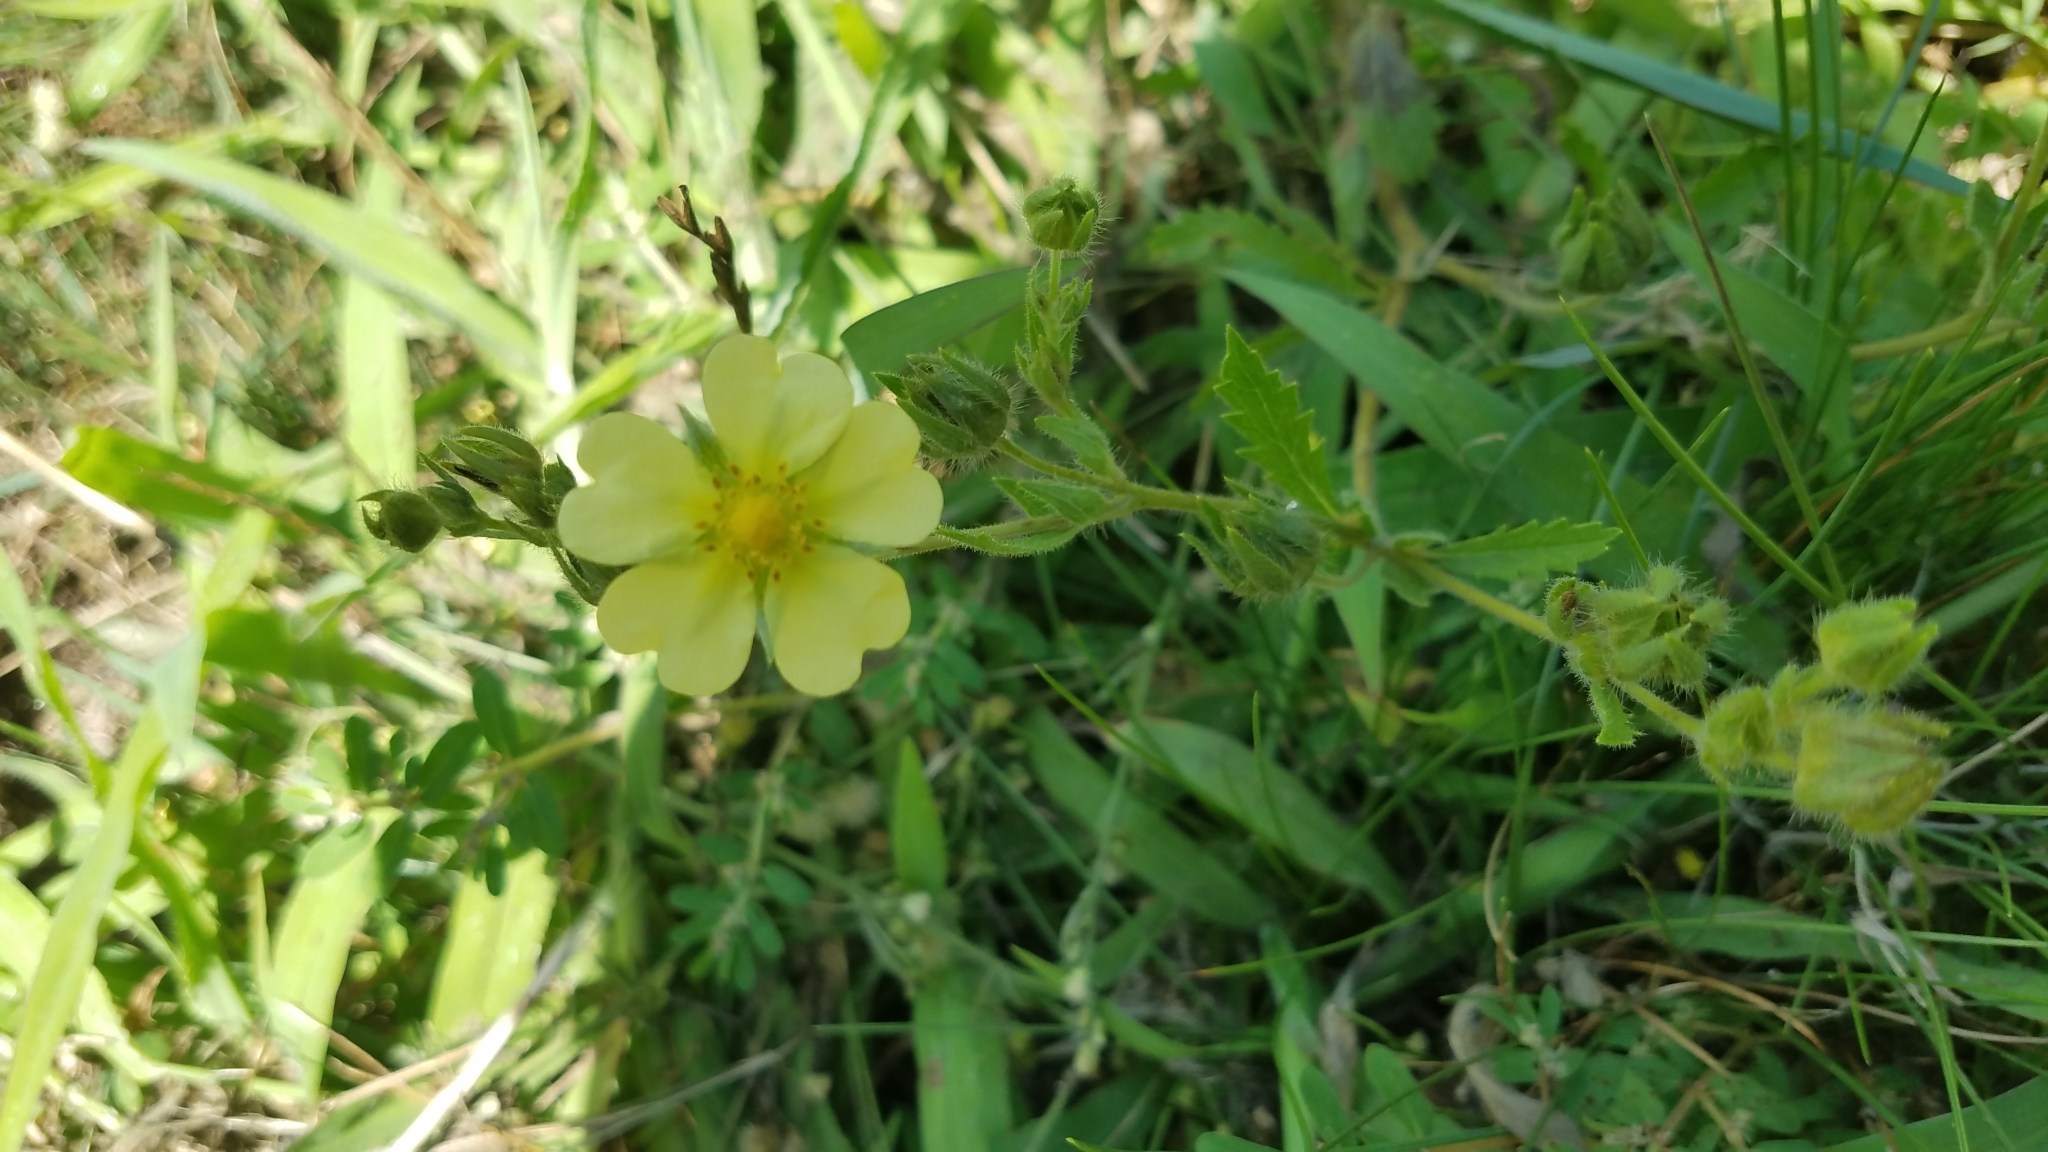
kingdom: Plantae
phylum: Tracheophyta
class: Magnoliopsida
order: Rosales
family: Rosaceae
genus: Potentilla
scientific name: Potentilla recta
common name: Sulphur cinquefoil
